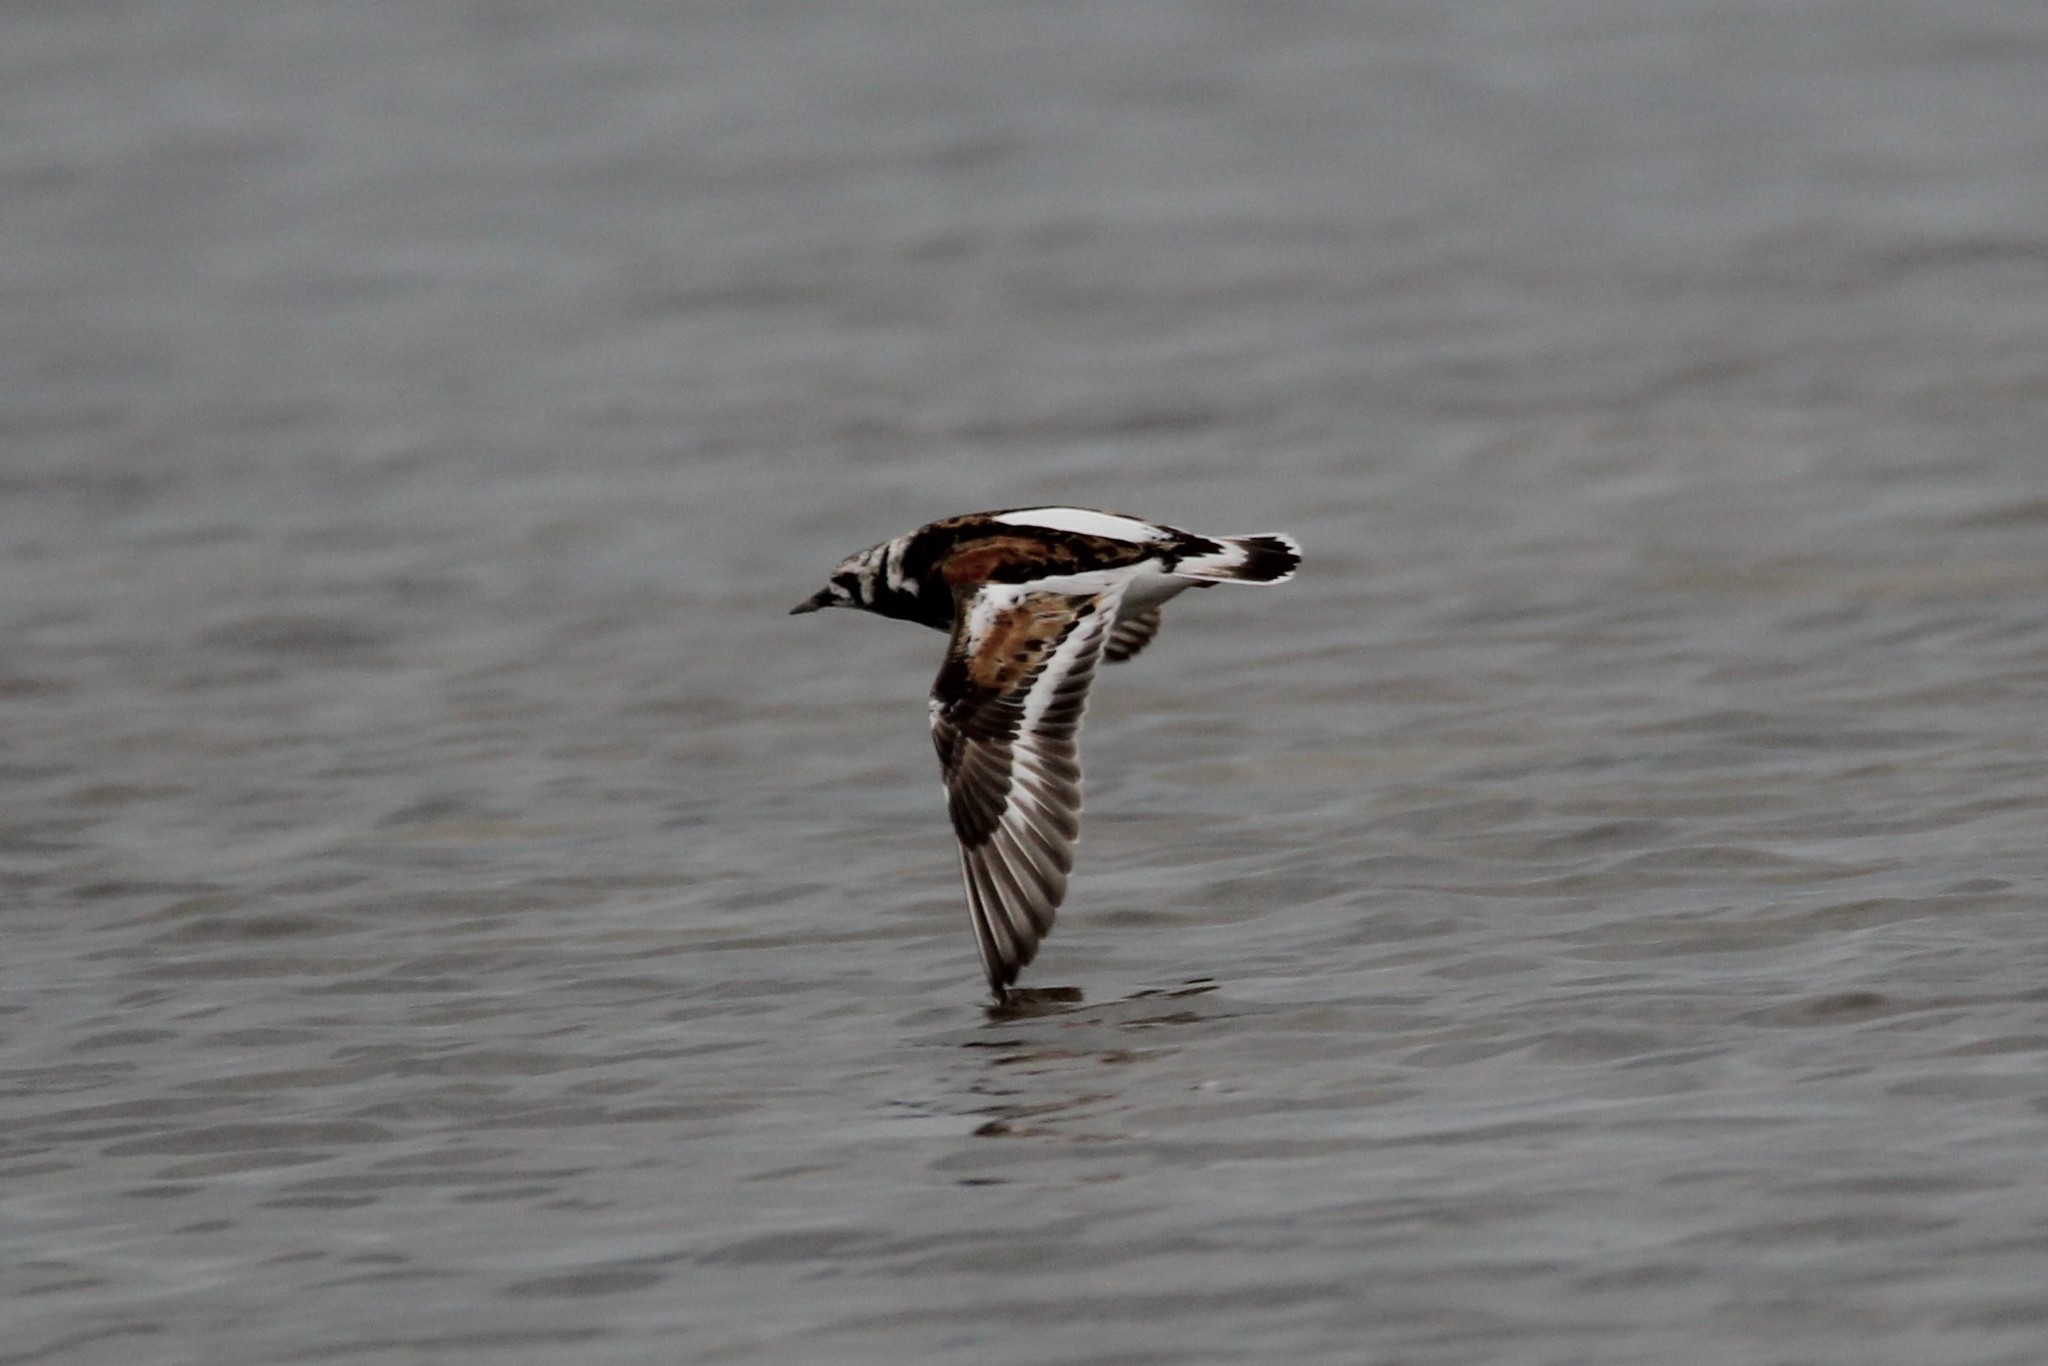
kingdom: Animalia
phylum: Chordata
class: Aves
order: Charadriiformes
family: Scolopacidae
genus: Arenaria
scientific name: Arenaria interpres
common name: Ruddy turnstone
